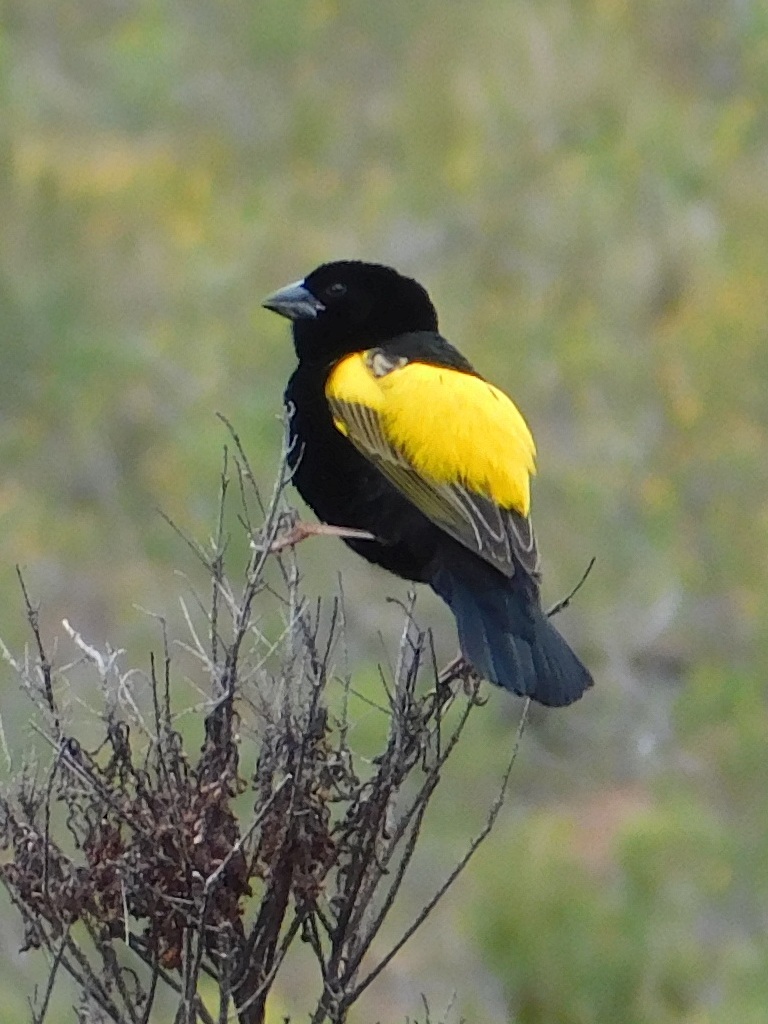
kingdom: Animalia
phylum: Chordata
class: Aves
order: Passeriformes
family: Ploceidae
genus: Euplectes
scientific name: Euplectes capensis
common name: Yellow bishop
